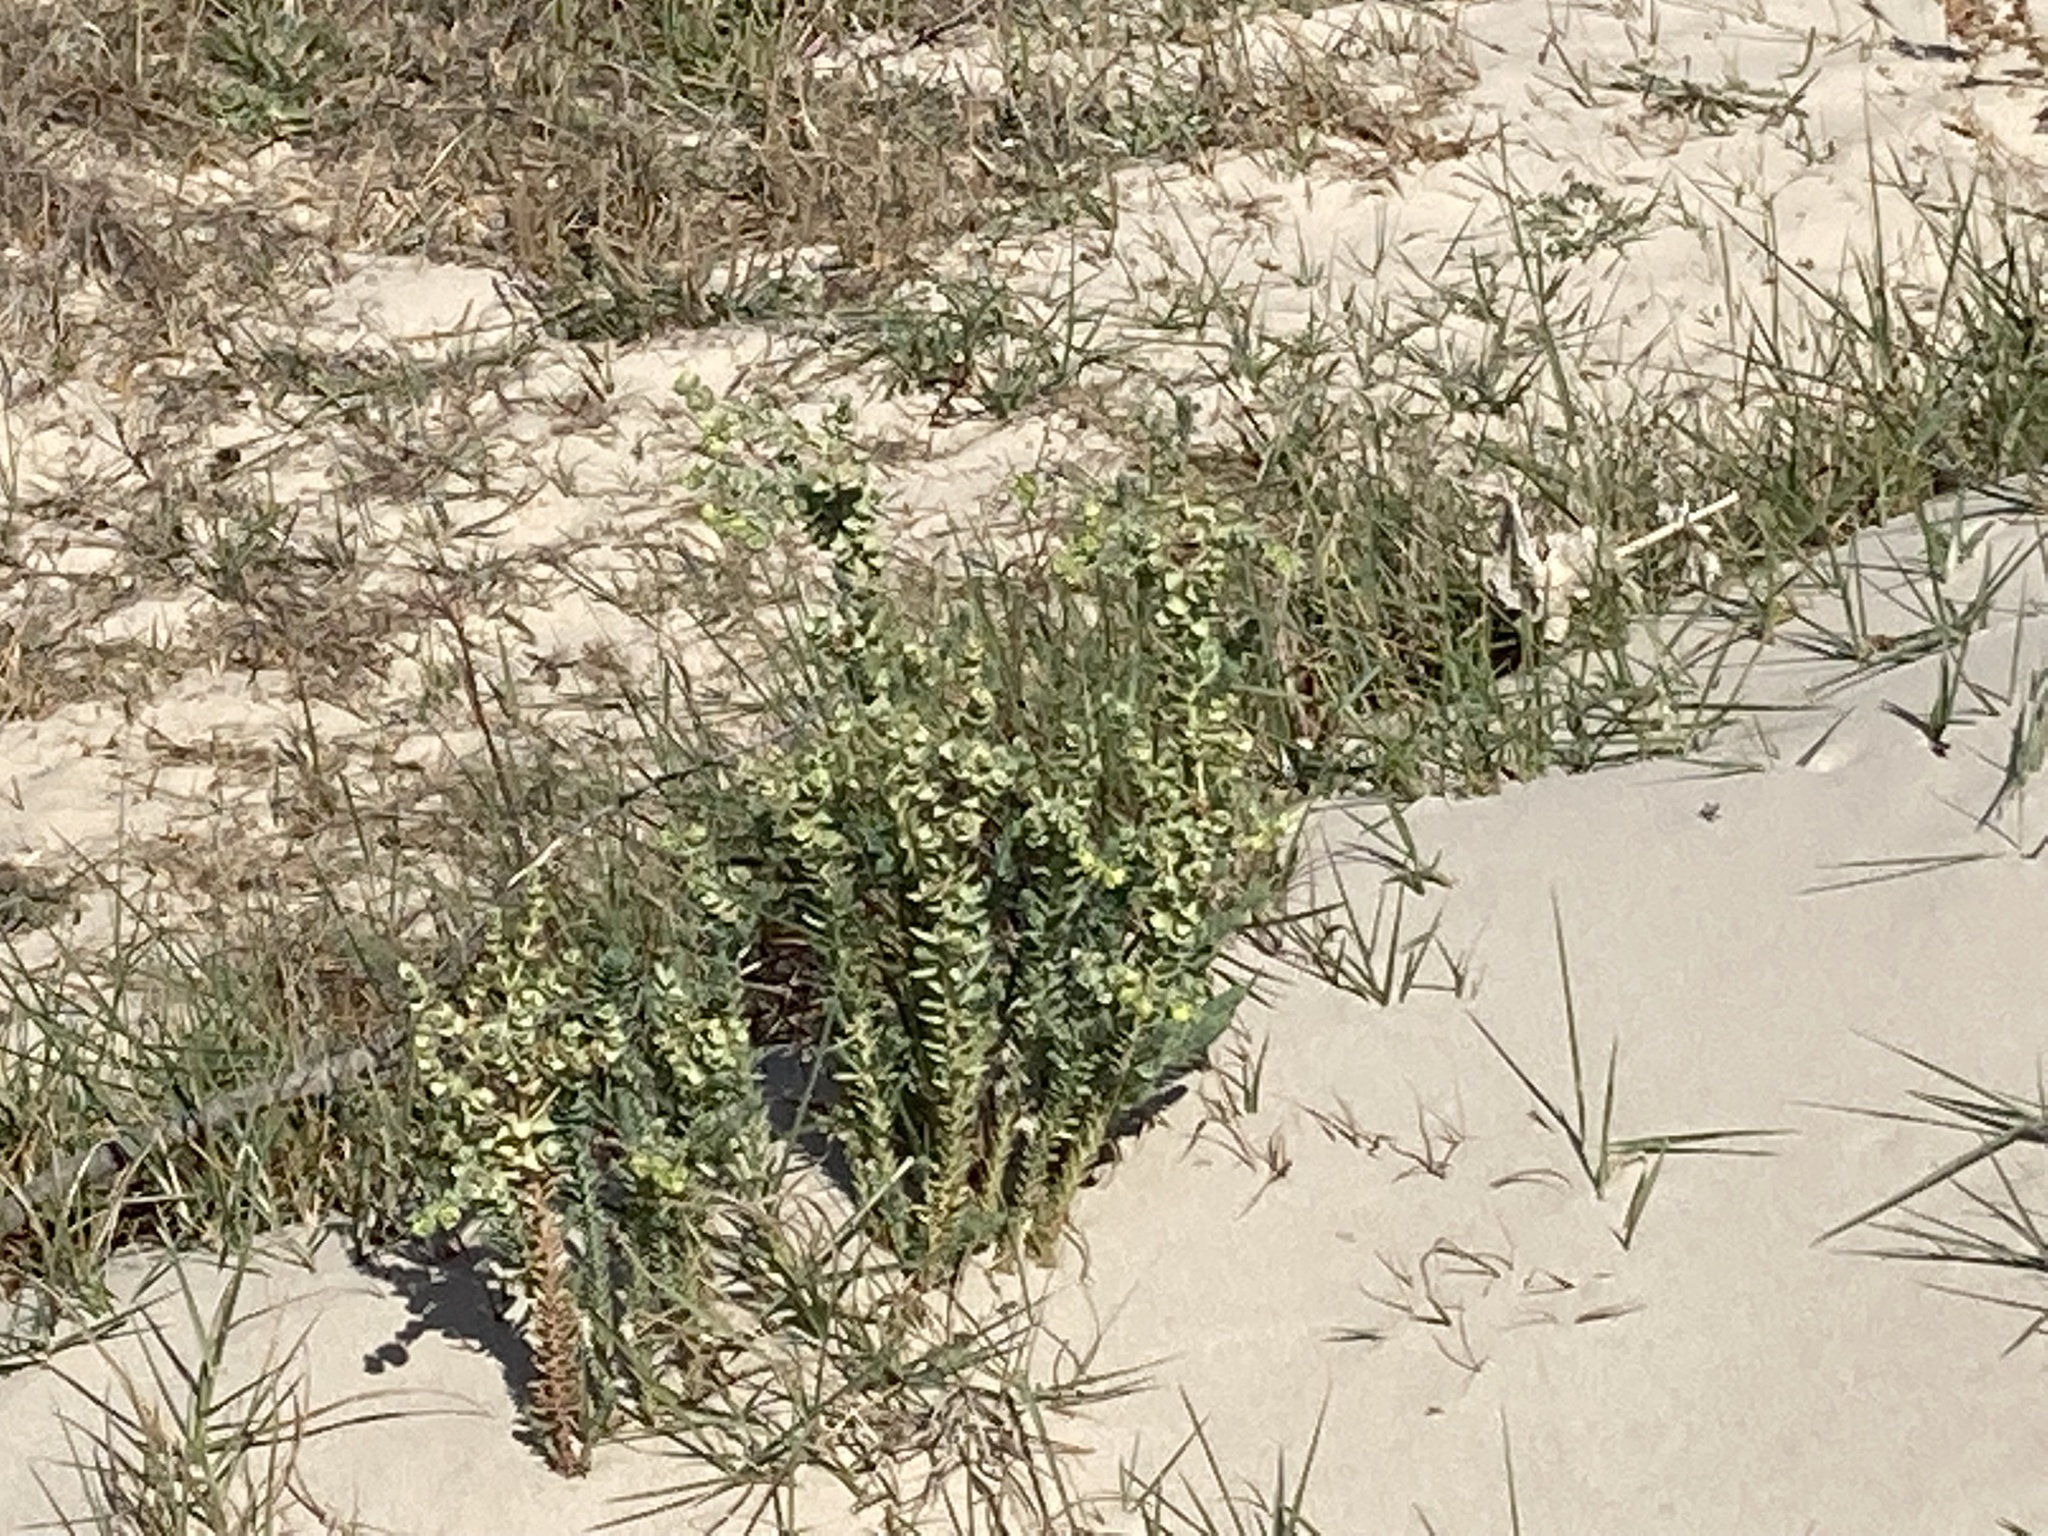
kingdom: Plantae
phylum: Tracheophyta
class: Magnoliopsida
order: Malpighiales
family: Euphorbiaceae
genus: Euphorbia
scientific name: Euphorbia paralias
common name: Sea spurge
